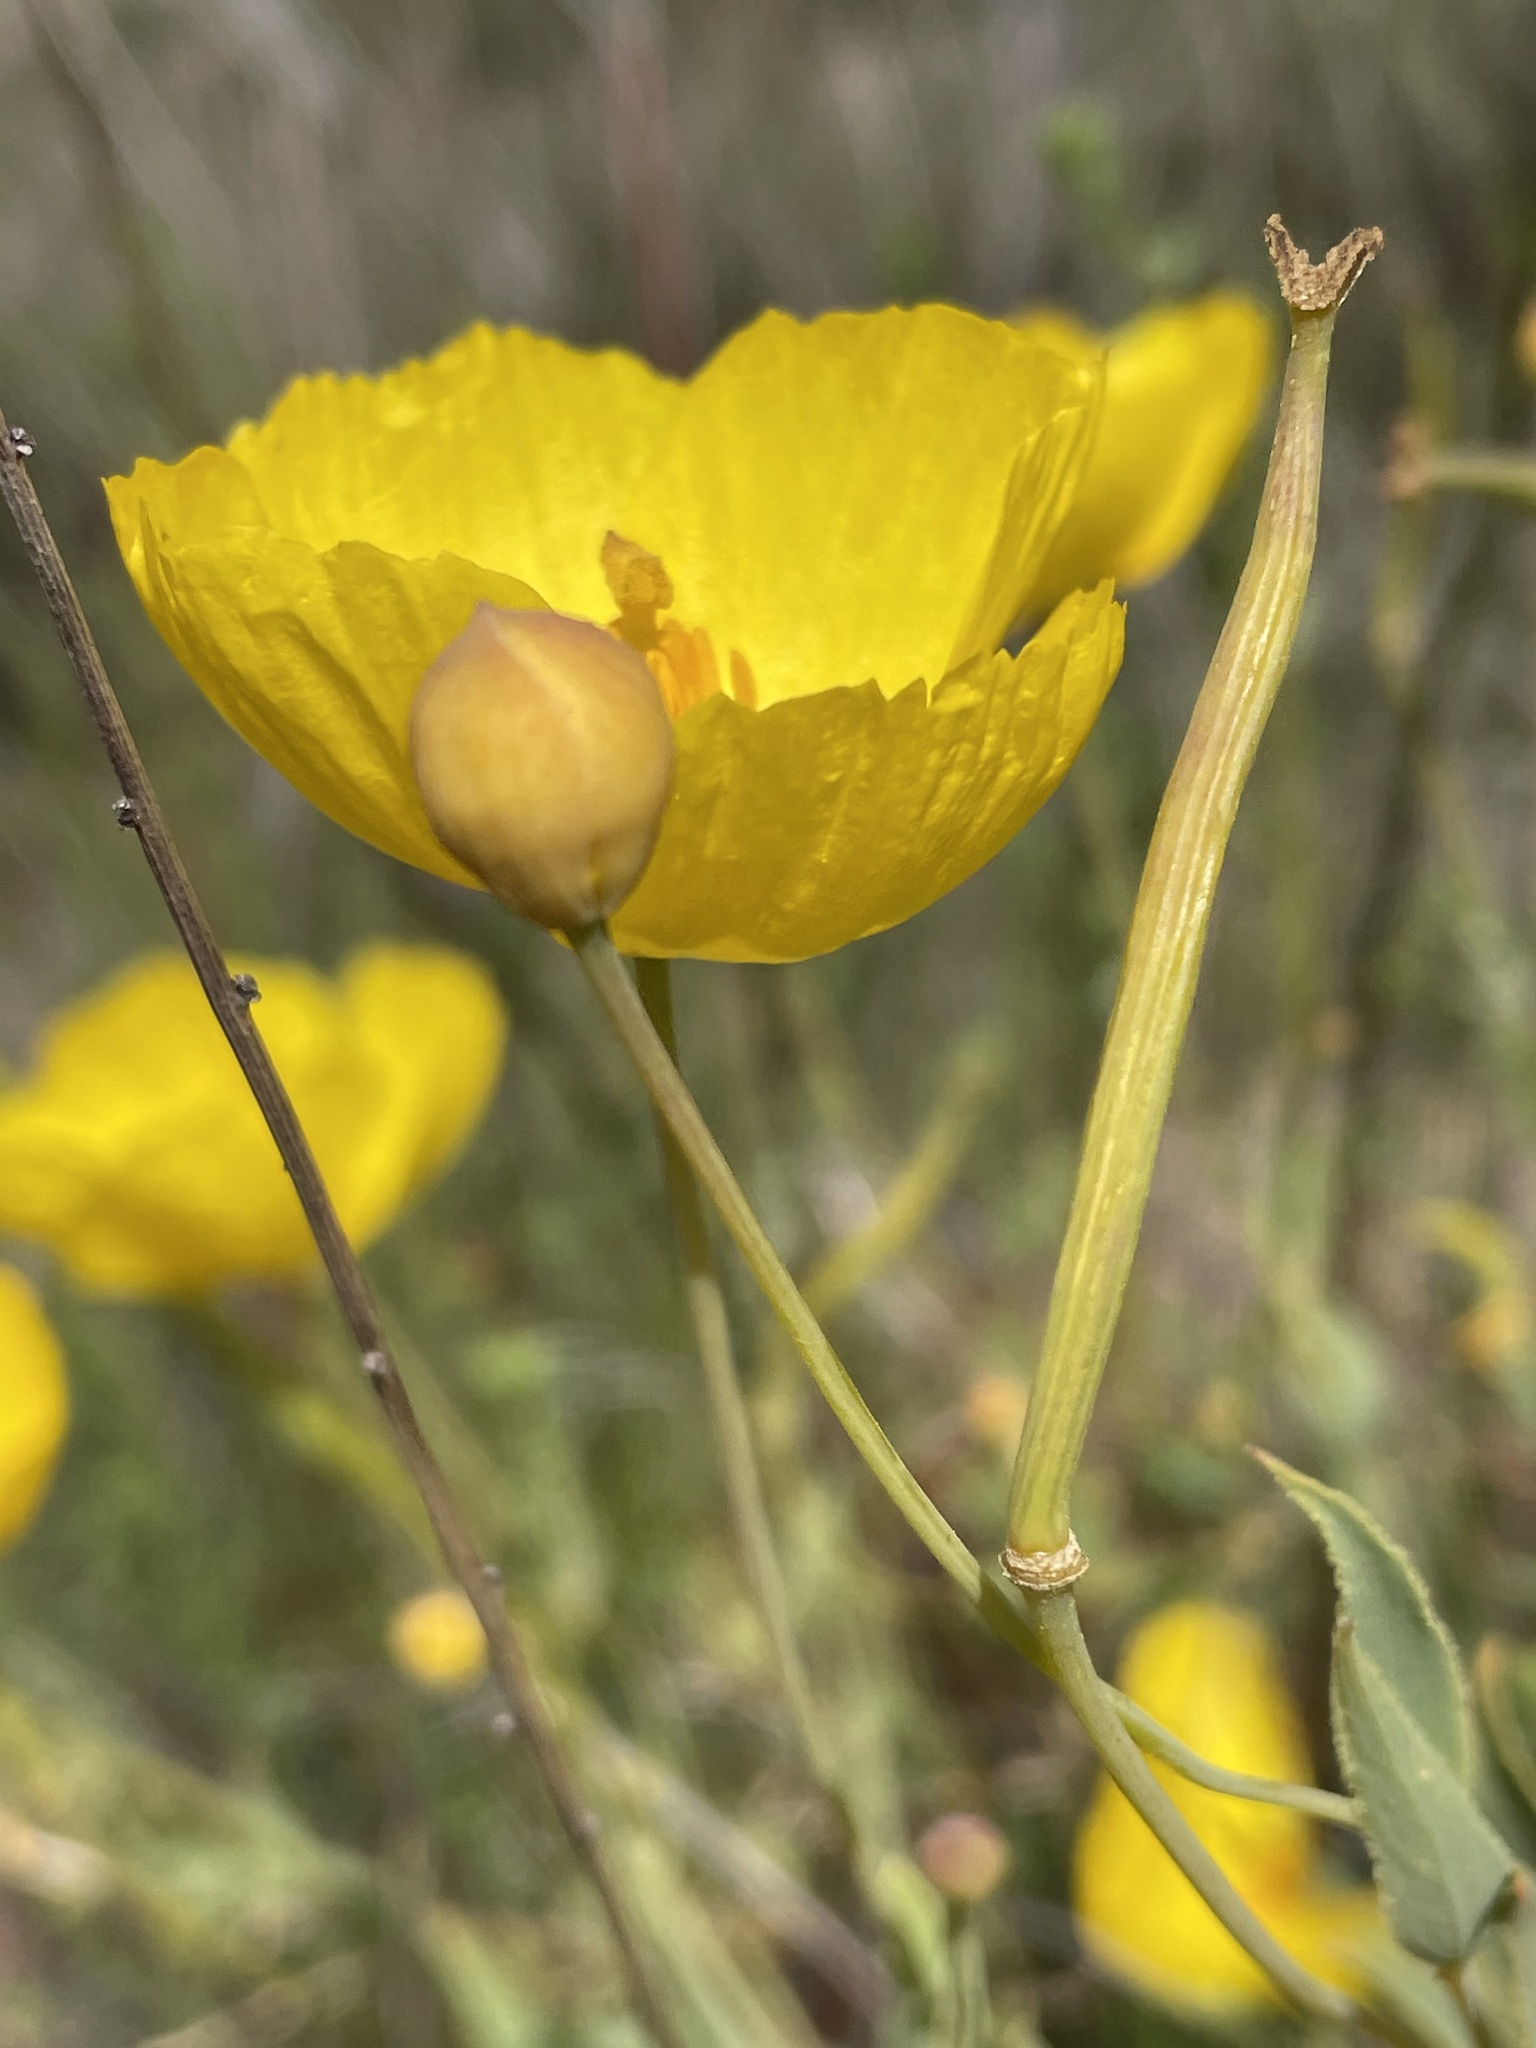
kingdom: Plantae
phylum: Tracheophyta
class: Magnoliopsida
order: Ranunculales
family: Papaveraceae
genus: Dendromecon
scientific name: Dendromecon rigida
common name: Tree poppy
